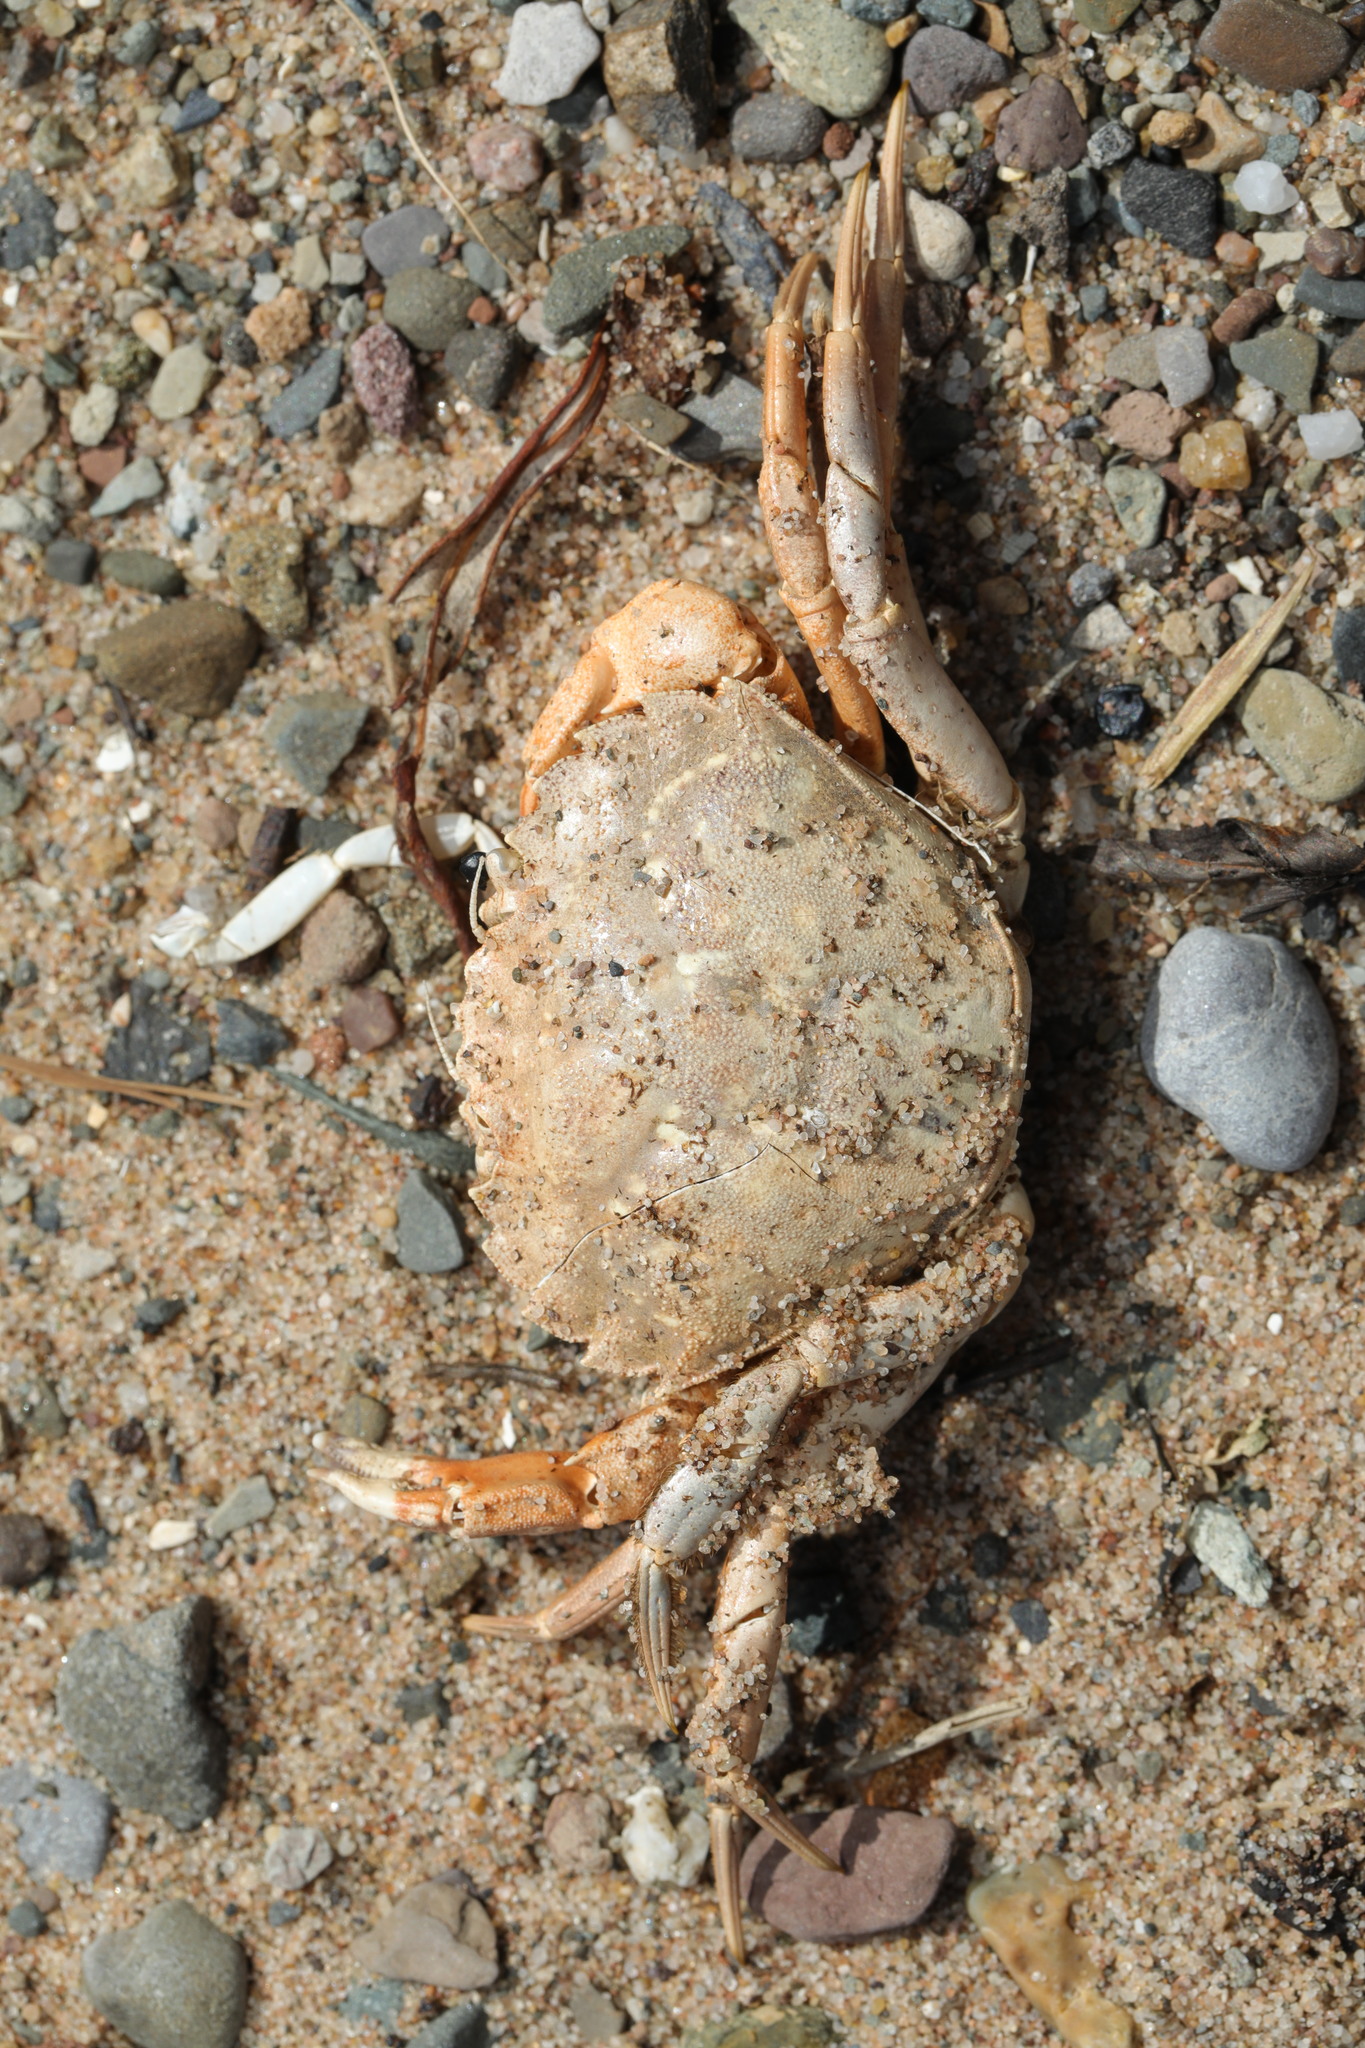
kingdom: Animalia
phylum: Arthropoda
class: Malacostraca
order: Decapoda
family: Carcinidae
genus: Carcinus
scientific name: Carcinus maenas
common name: European green crab
